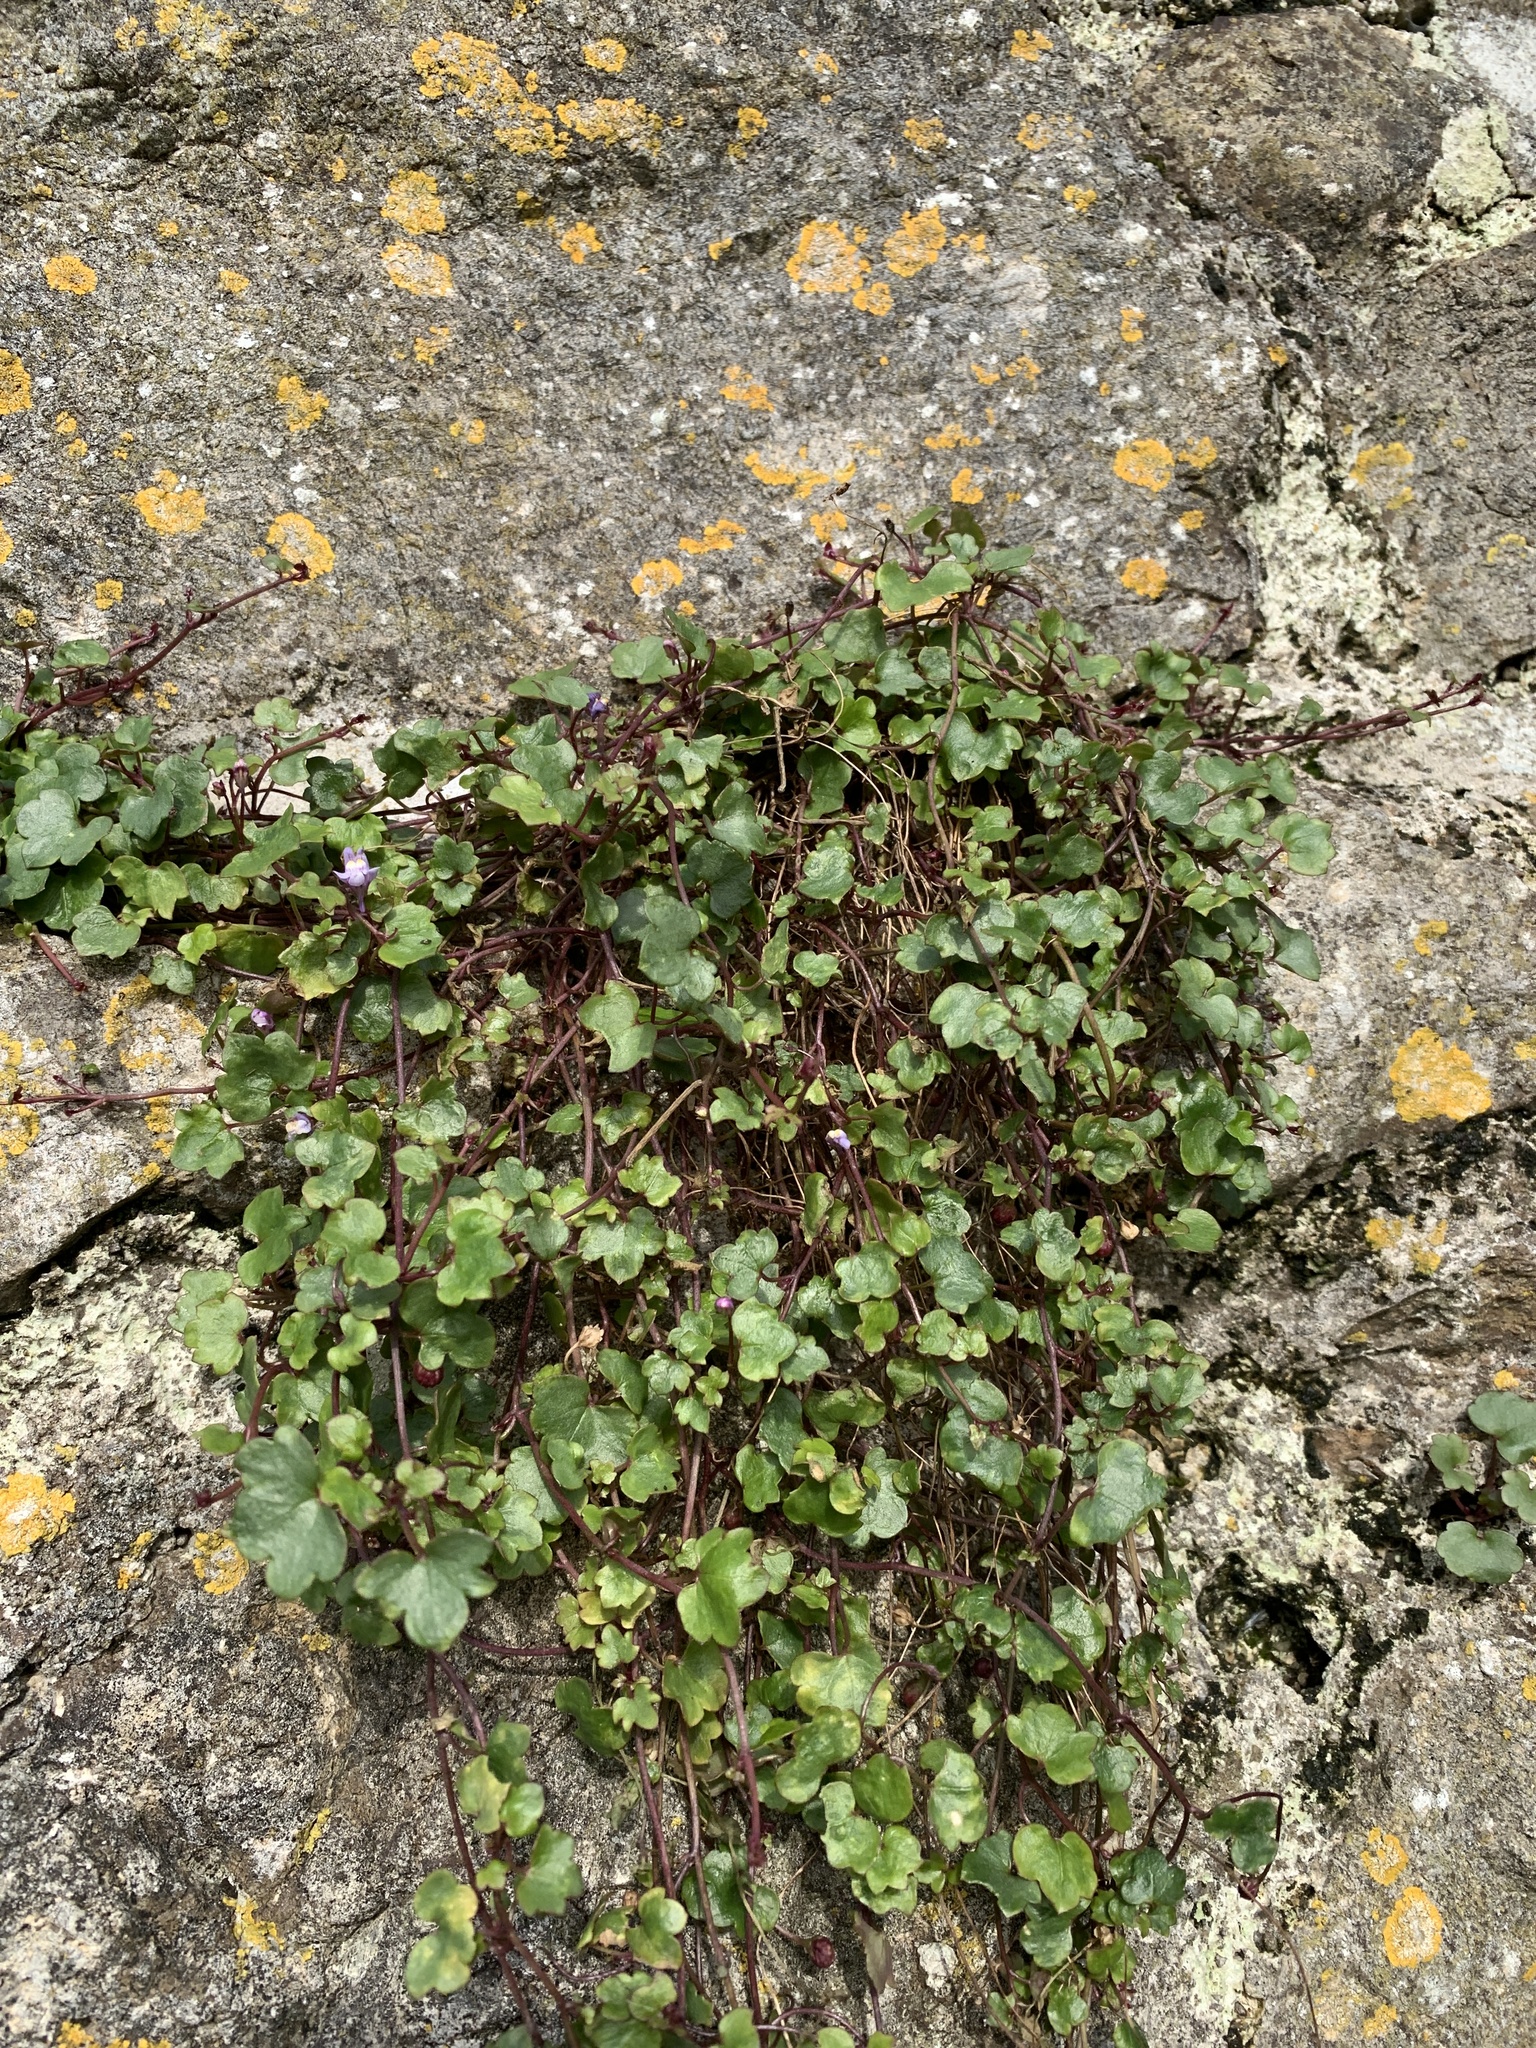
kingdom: Plantae
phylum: Tracheophyta
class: Magnoliopsida
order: Lamiales
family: Plantaginaceae
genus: Cymbalaria
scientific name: Cymbalaria muralis
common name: Ivy-leaved toadflax
